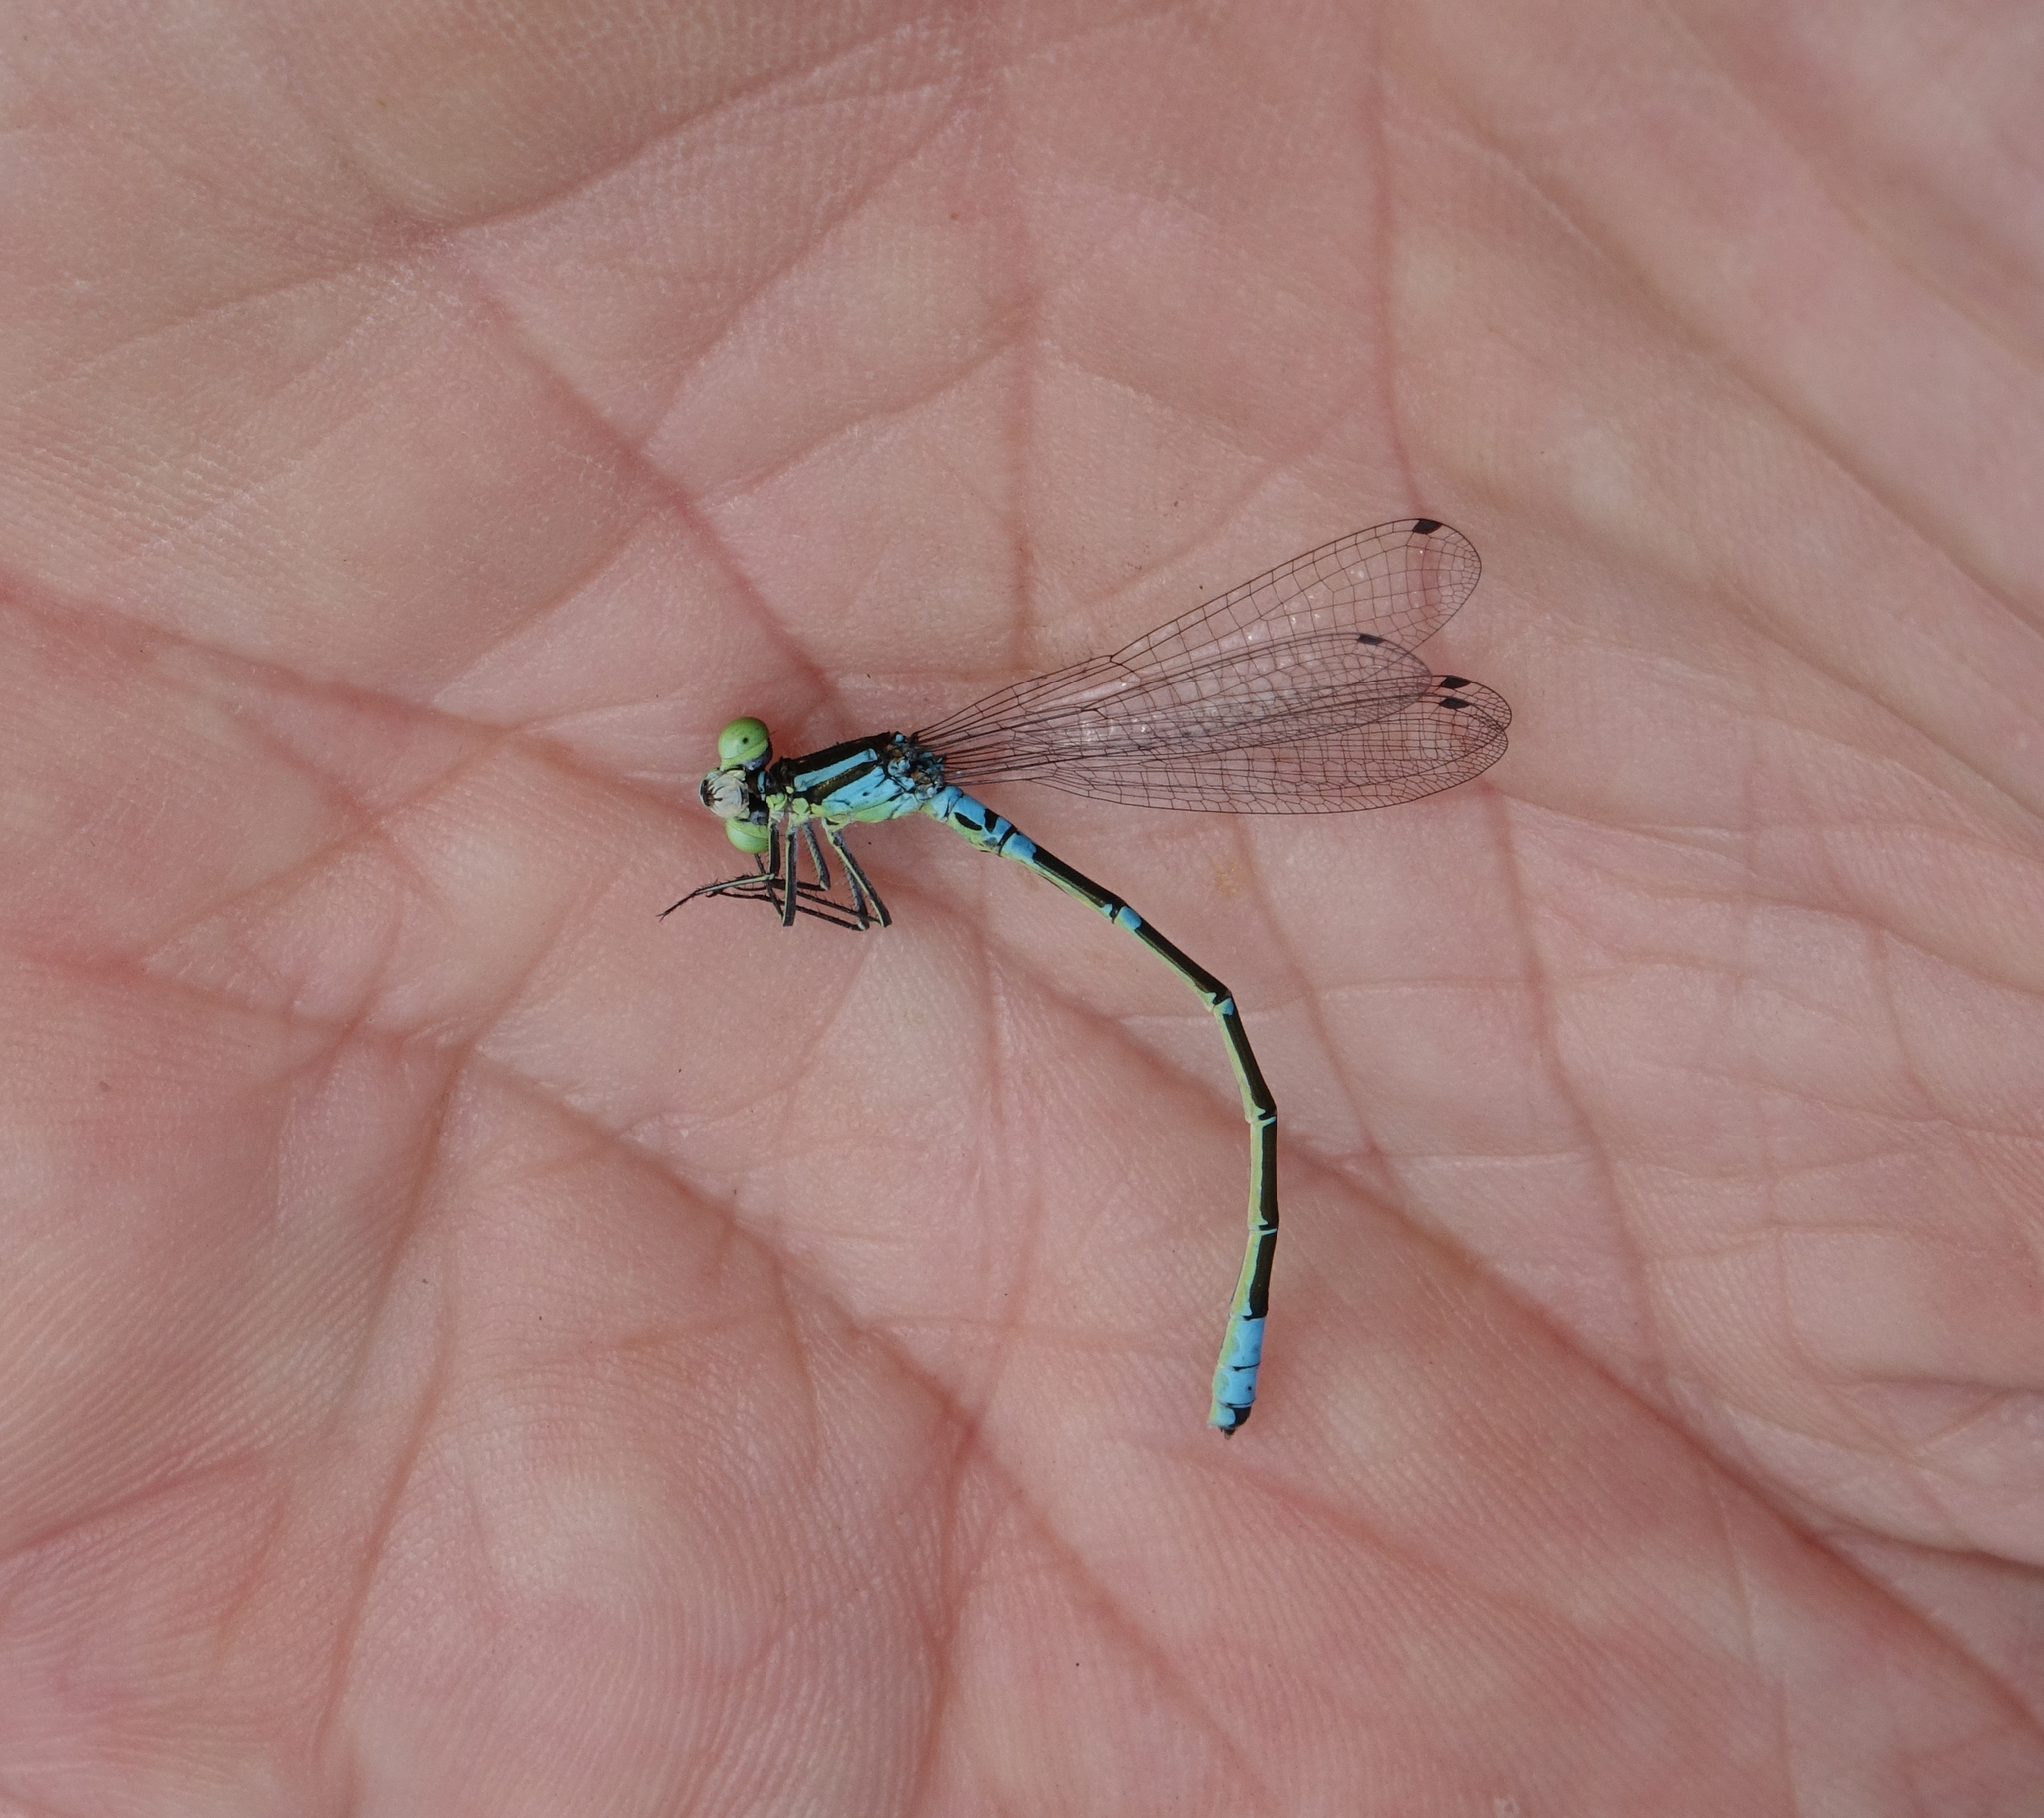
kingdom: Animalia
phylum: Arthropoda
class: Insecta
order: Odonata
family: Coenagrionidae
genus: Coenagrion
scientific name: Coenagrion lunulatum
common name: Irish damselfly
